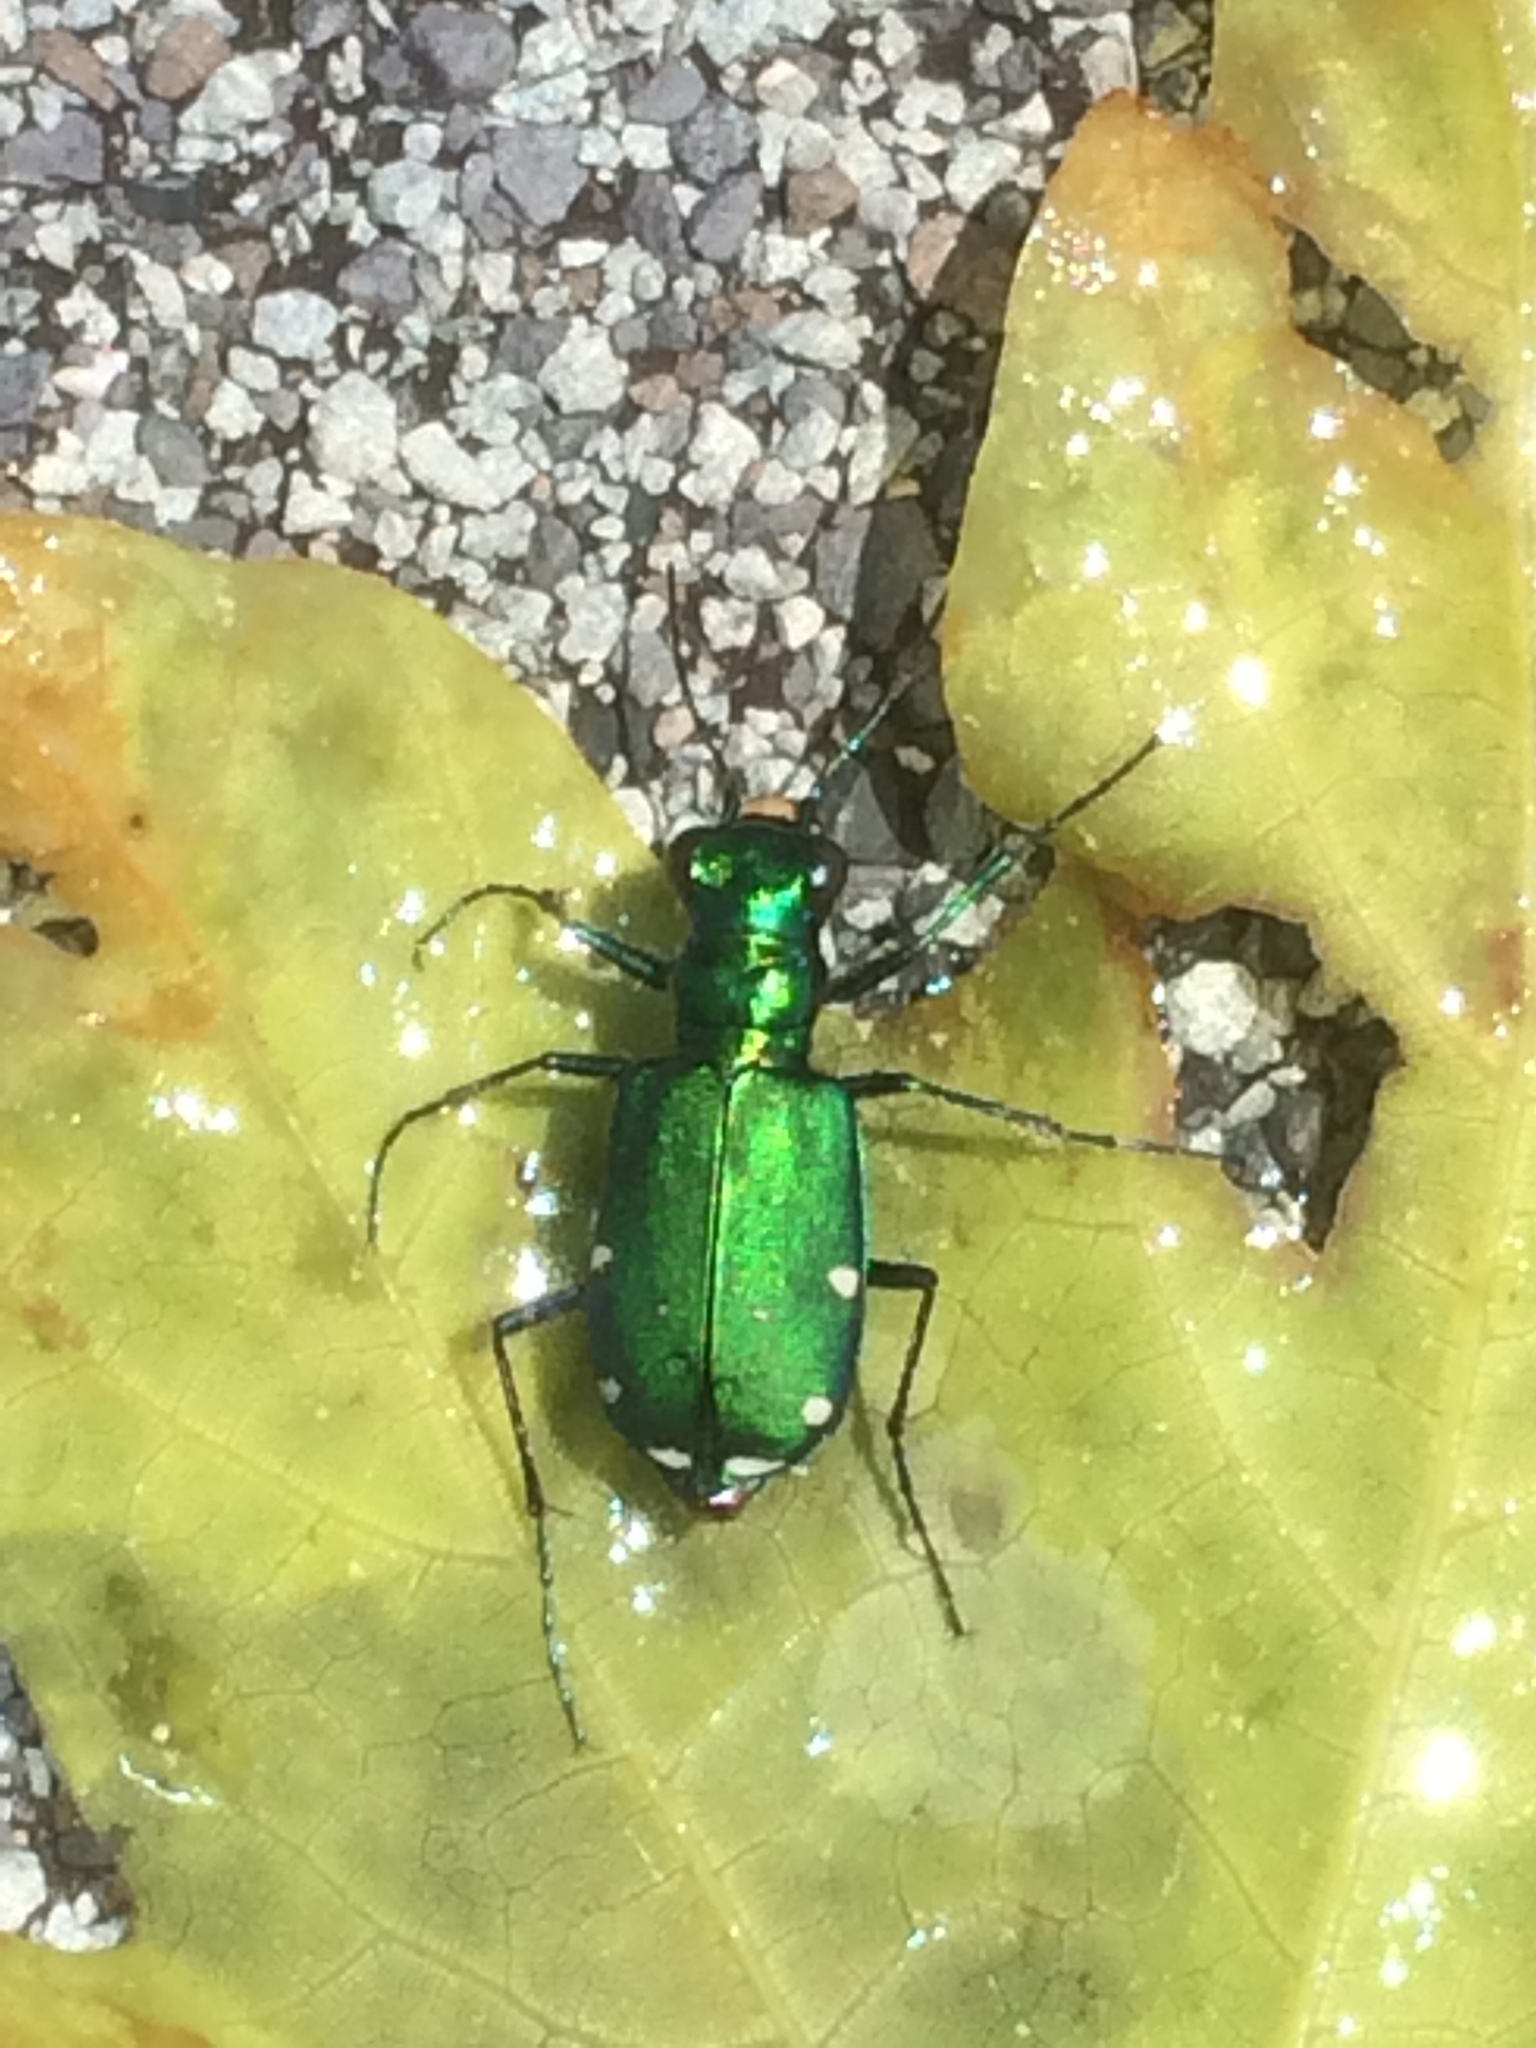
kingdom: Animalia
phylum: Arthropoda
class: Insecta
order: Coleoptera
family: Carabidae
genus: Cicindela
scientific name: Cicindela sexguttata
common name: Six-spotted tiger beetle
